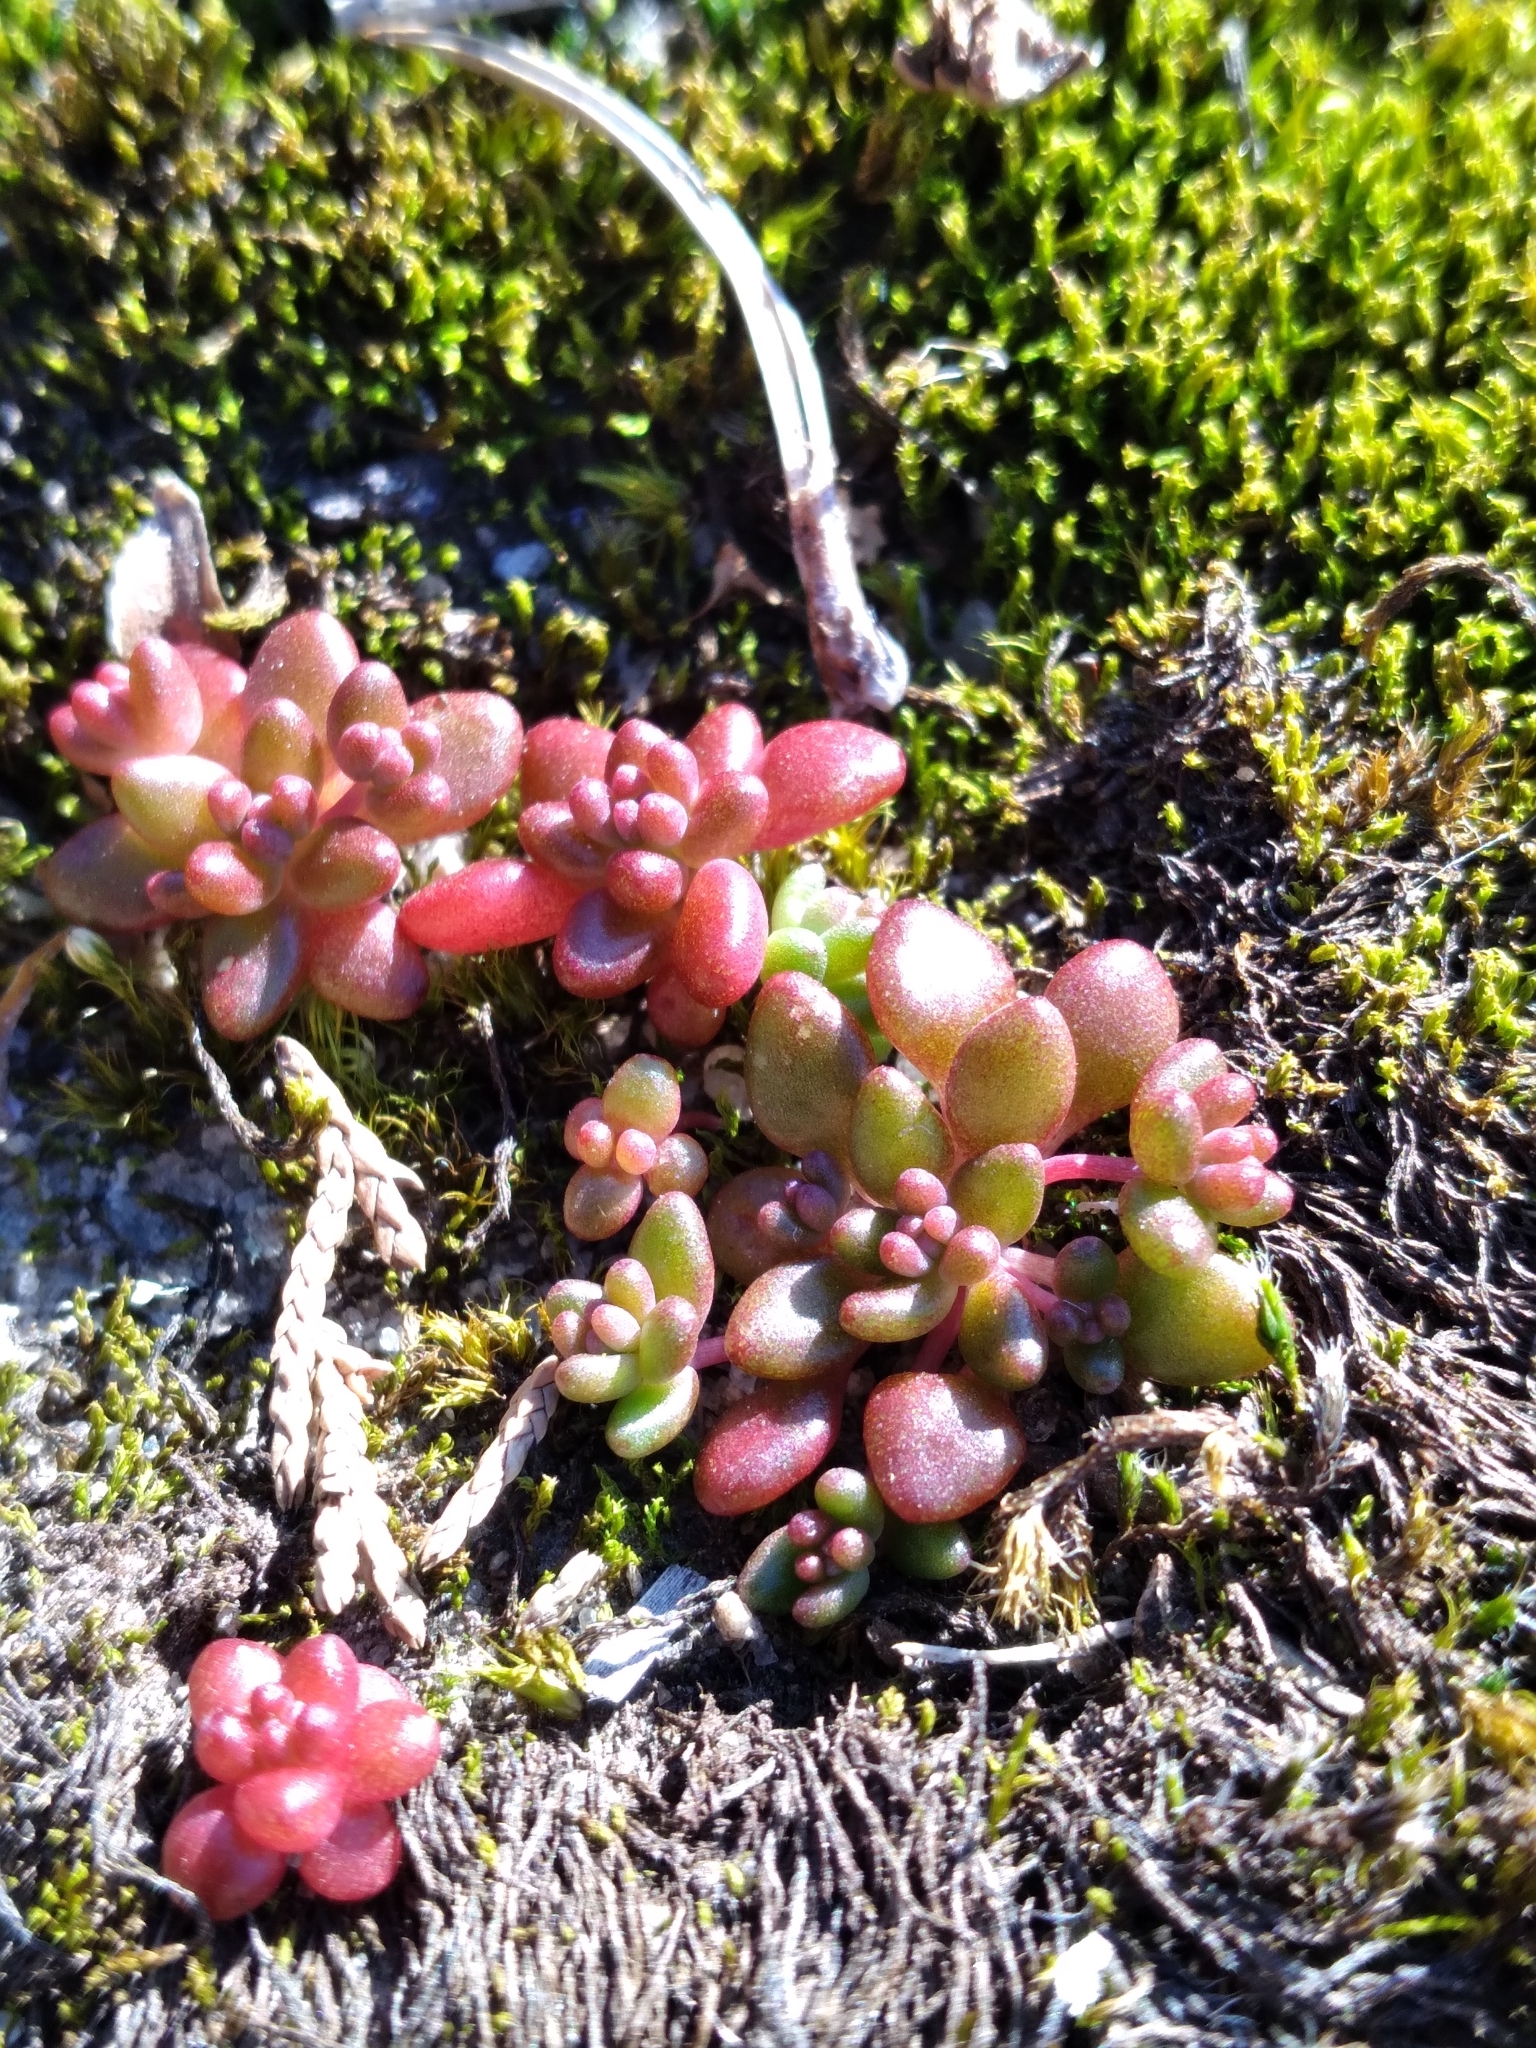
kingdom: Plantae
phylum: Tracheophyta
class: Magnoliopsida
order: Saxifragales
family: Crassulaceae
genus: Sedum
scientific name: Sedum smallii
